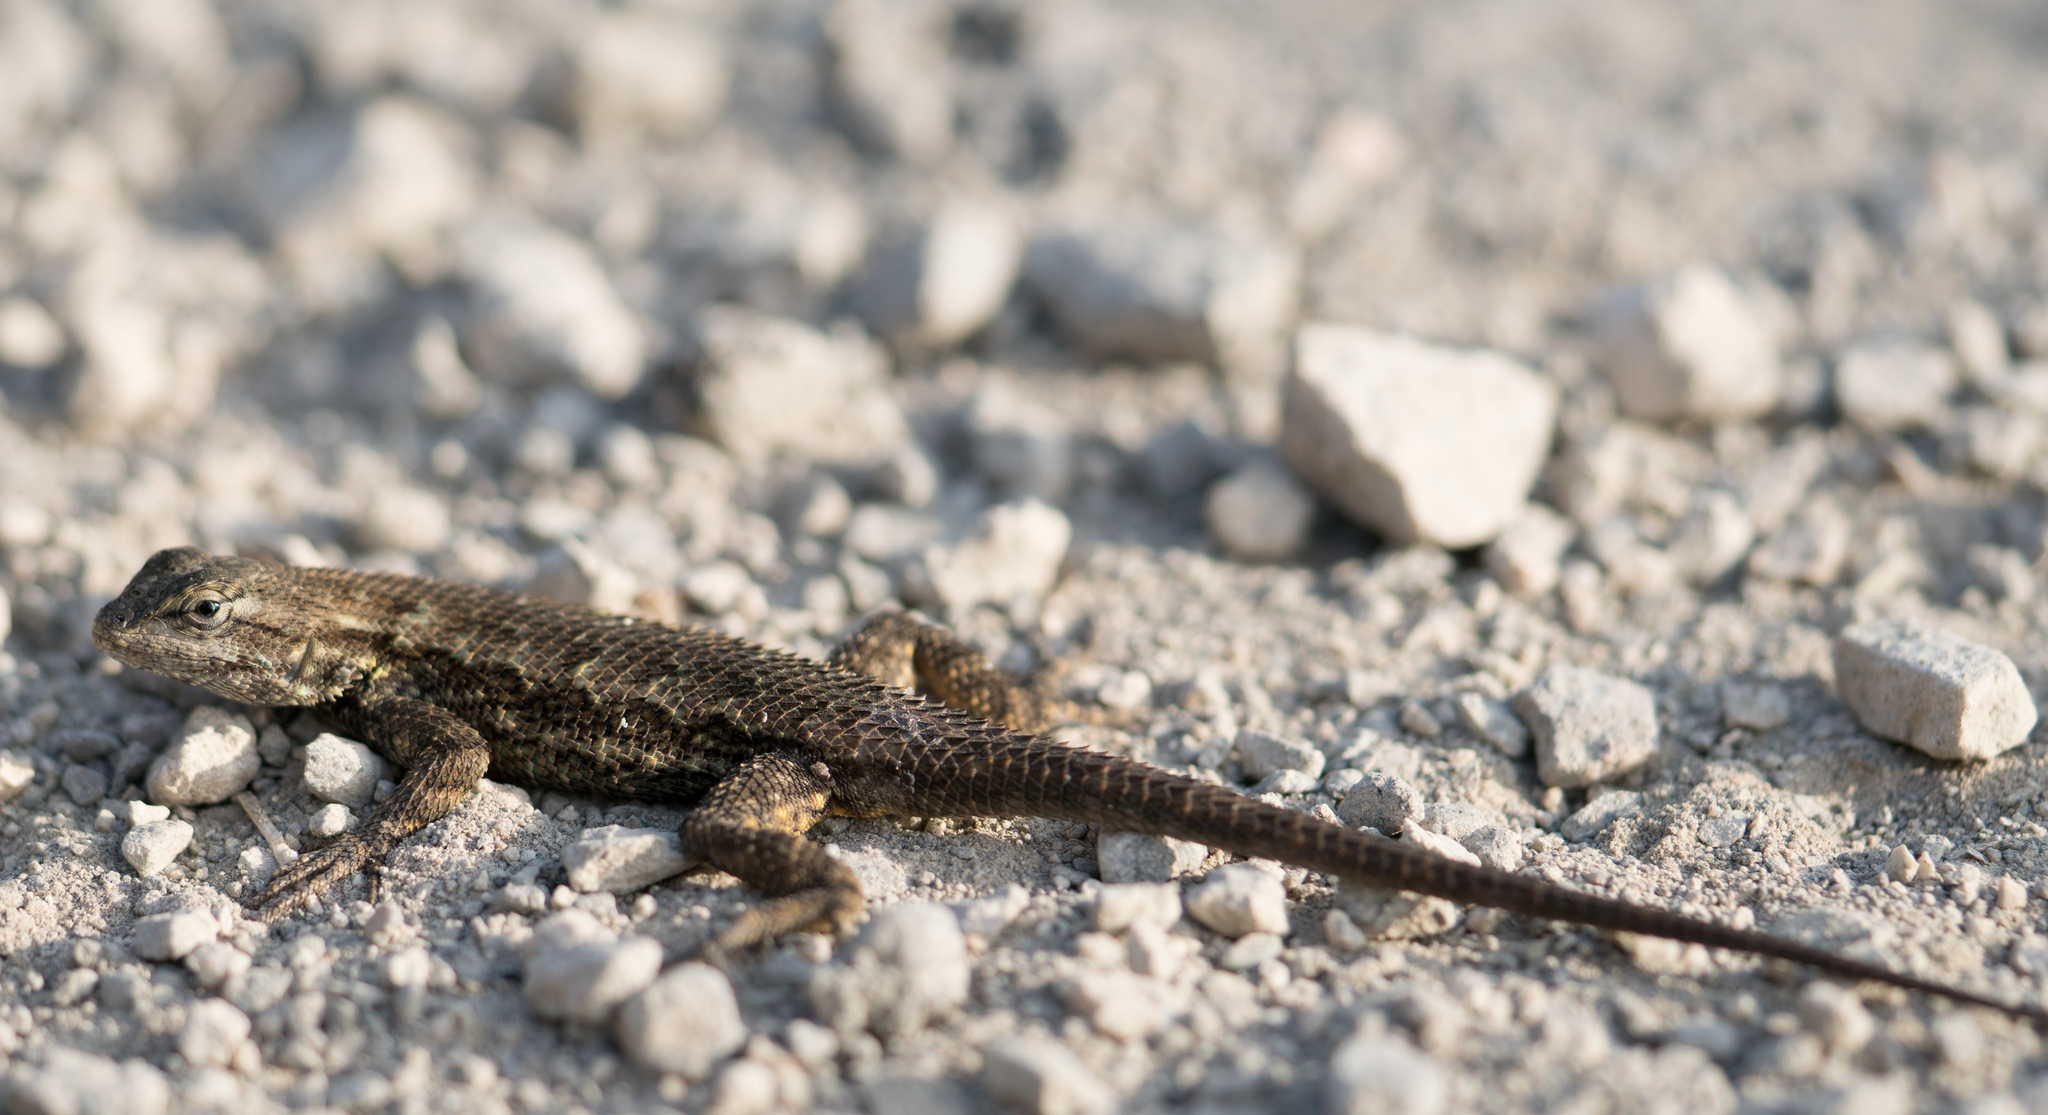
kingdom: Animalia
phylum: Chordata
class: Squamata
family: Phrynosomatidae
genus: Sceloporus
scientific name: Sceloporus occidentalis
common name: Western fence lizard
